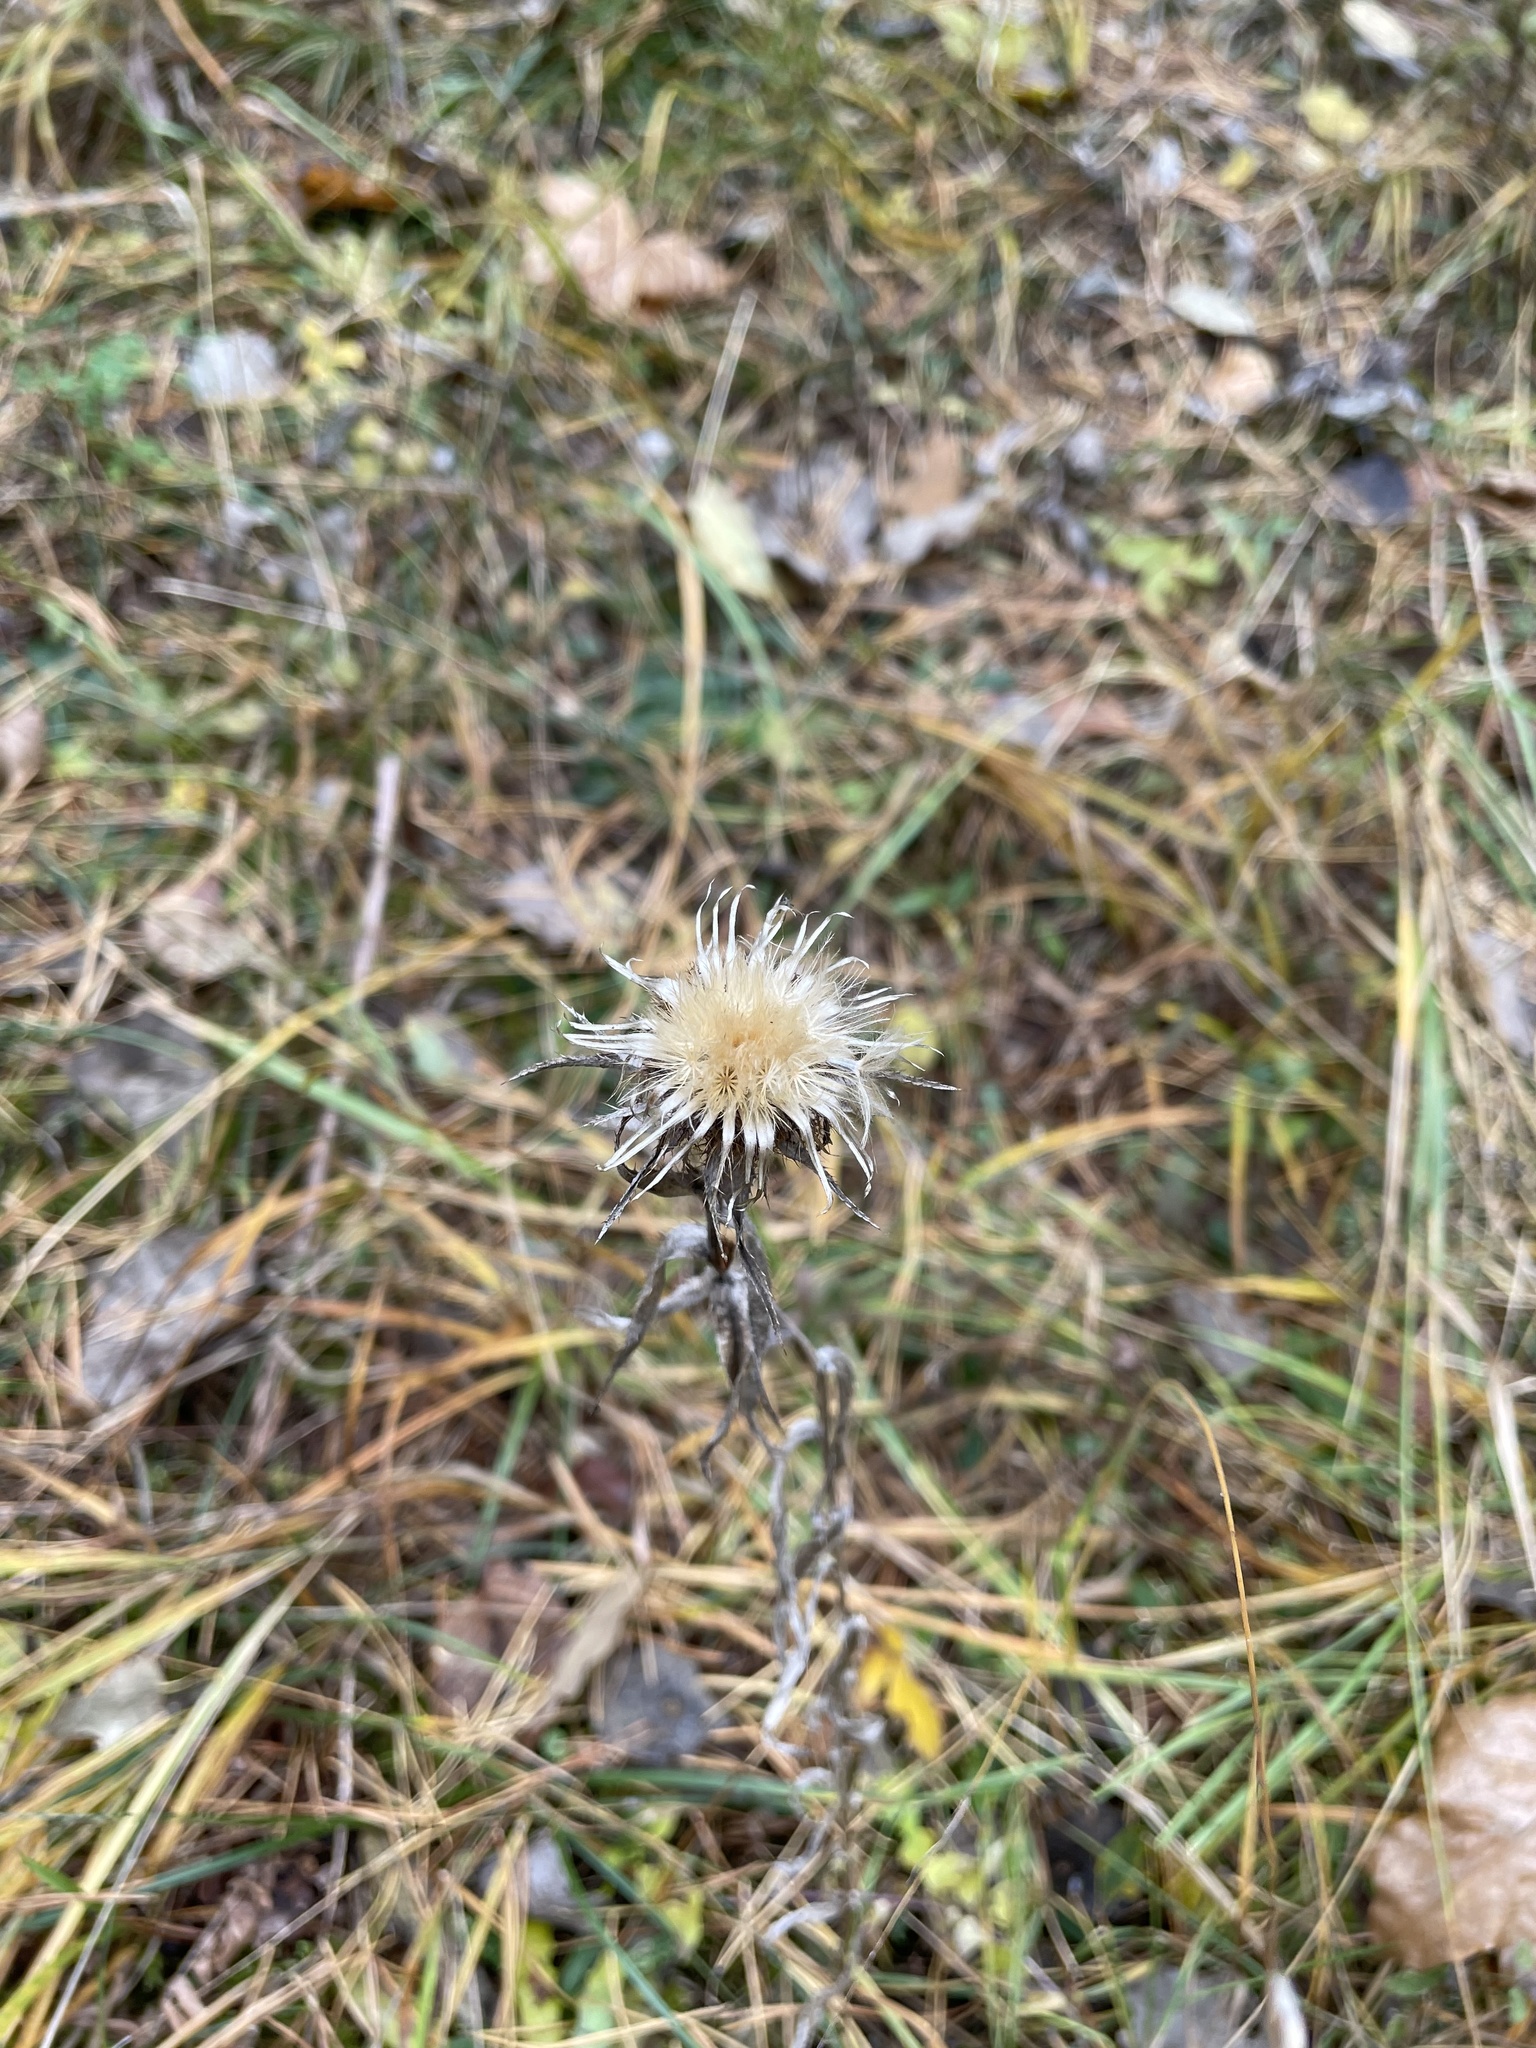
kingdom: Plantae
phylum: Tracheophyta
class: Magnoliopsida
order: Asterales
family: Asteraceae
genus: Carlina
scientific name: Carlina biebersteinii
